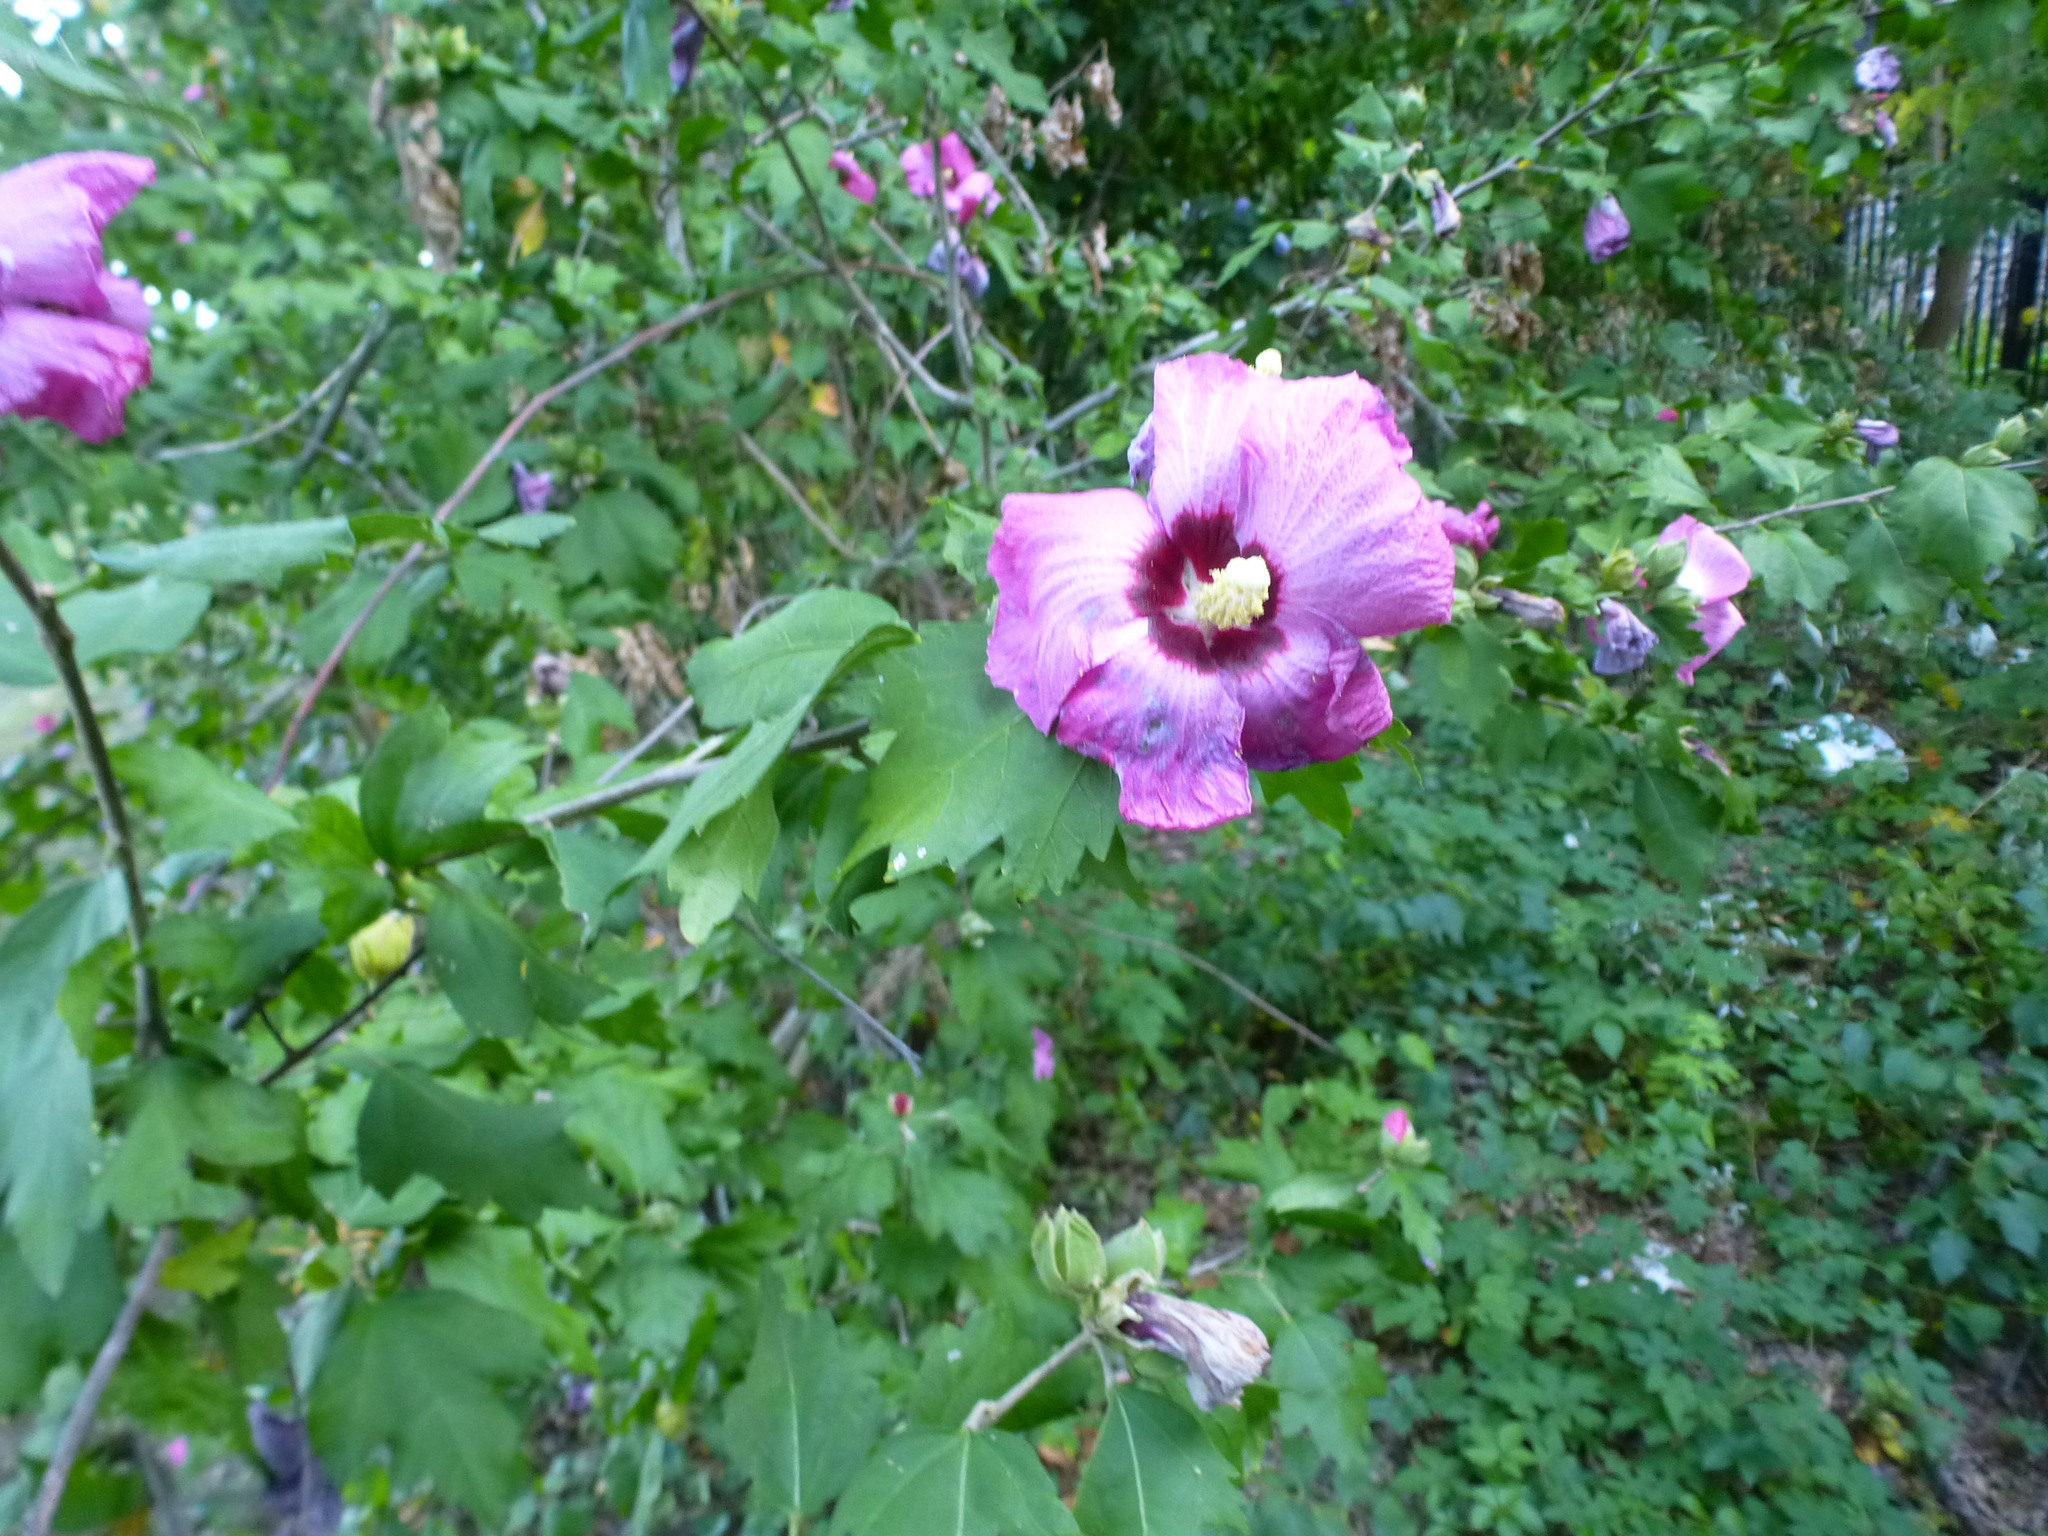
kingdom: Plantae
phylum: Tracheophyta
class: Magnoliopsida
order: Malvales
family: Malvaceae
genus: Hibiscus
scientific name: Hibiscus syriacus
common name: Syrian ketmia
